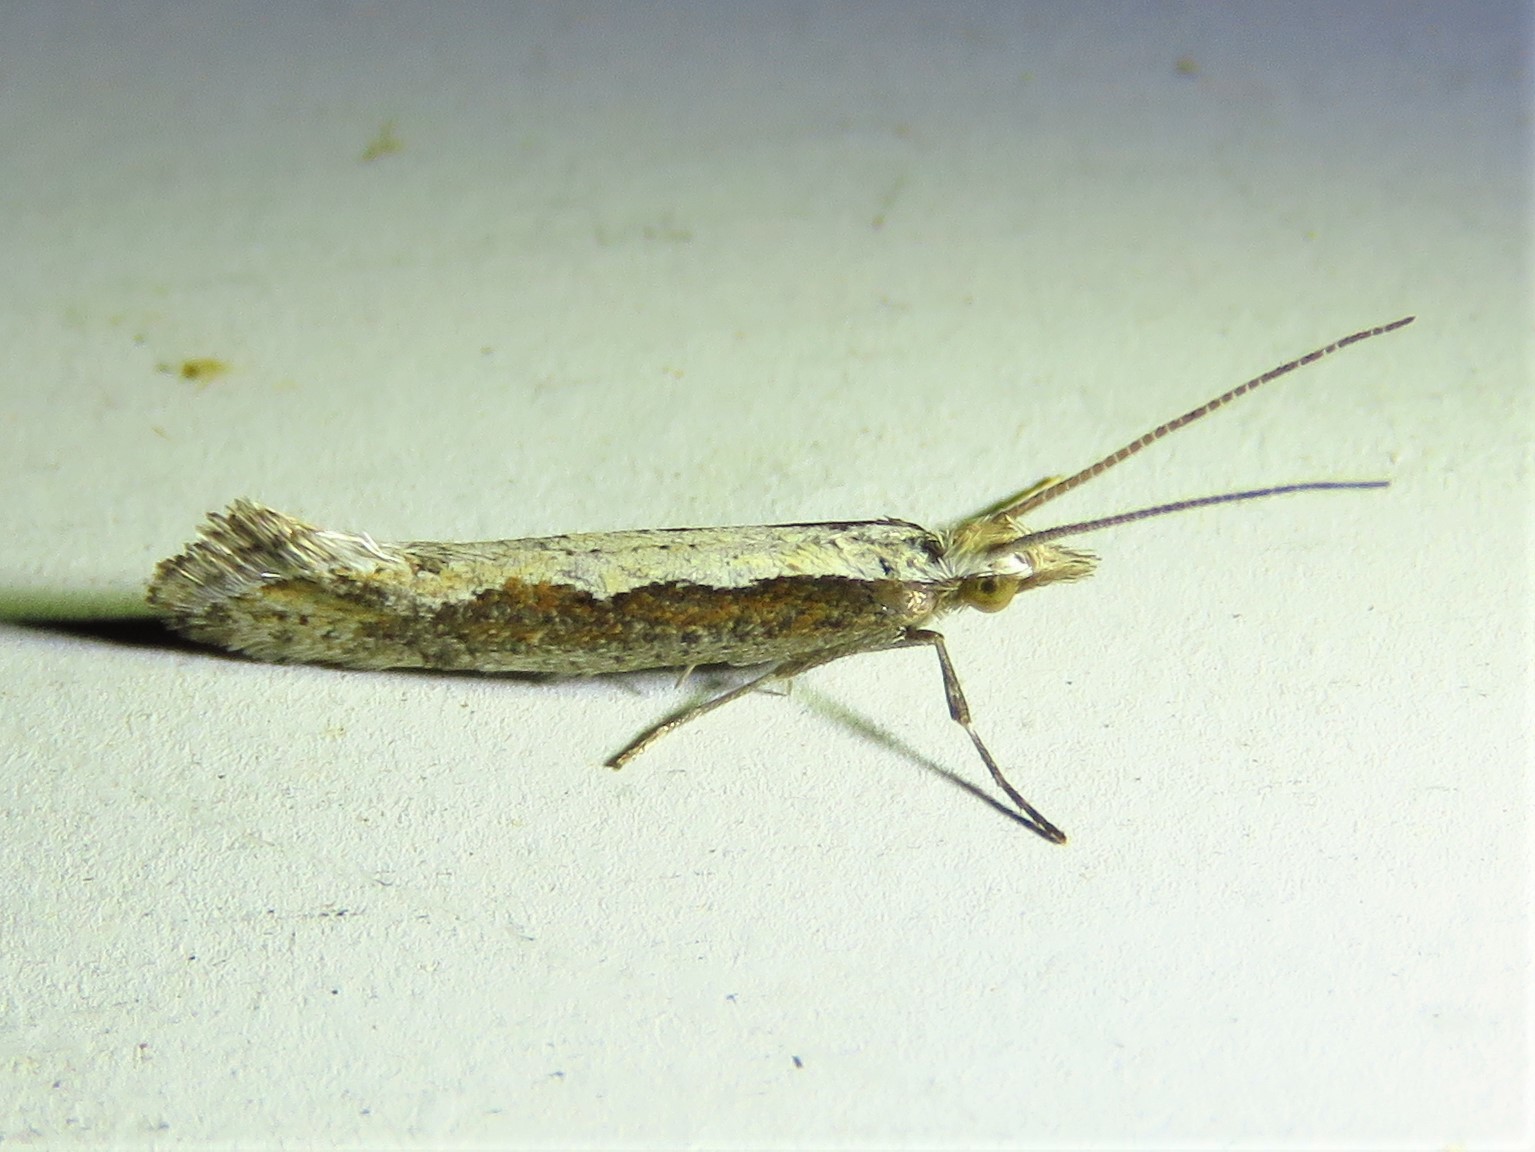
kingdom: Animalia
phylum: Arthropoda
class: Insecta
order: Lepidoptera
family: Plutellidae
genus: Plutella
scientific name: Plutella xylostella
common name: Diamond-back moth
